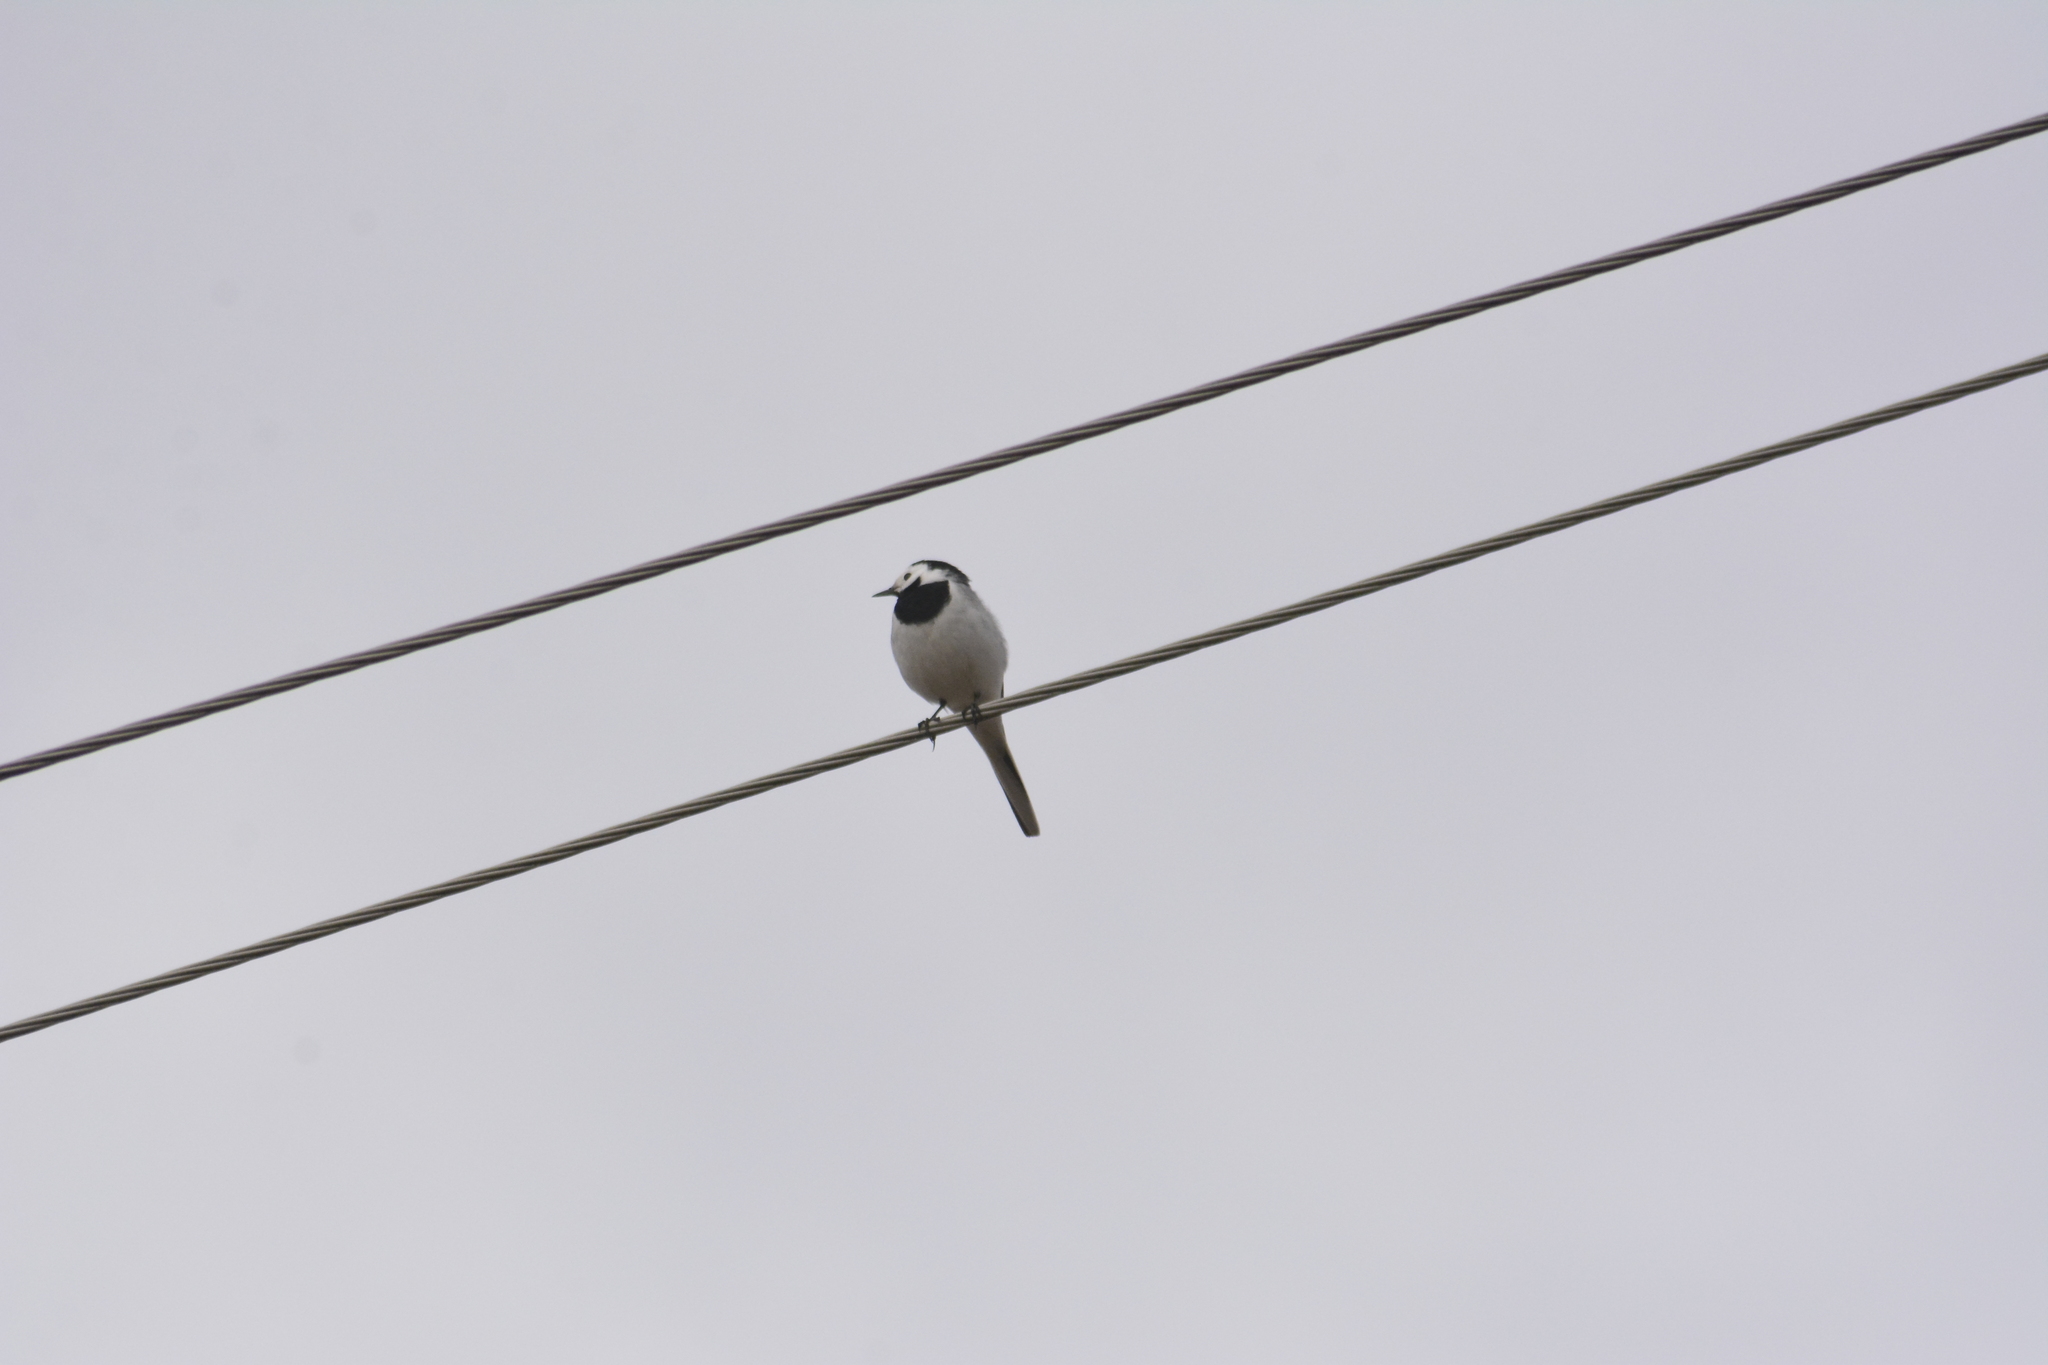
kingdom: Animalia
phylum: Chordata
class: Aves
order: Passeriformes
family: Motacillidae
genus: Motacilla
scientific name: Motacilla alba
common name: White wagtail
